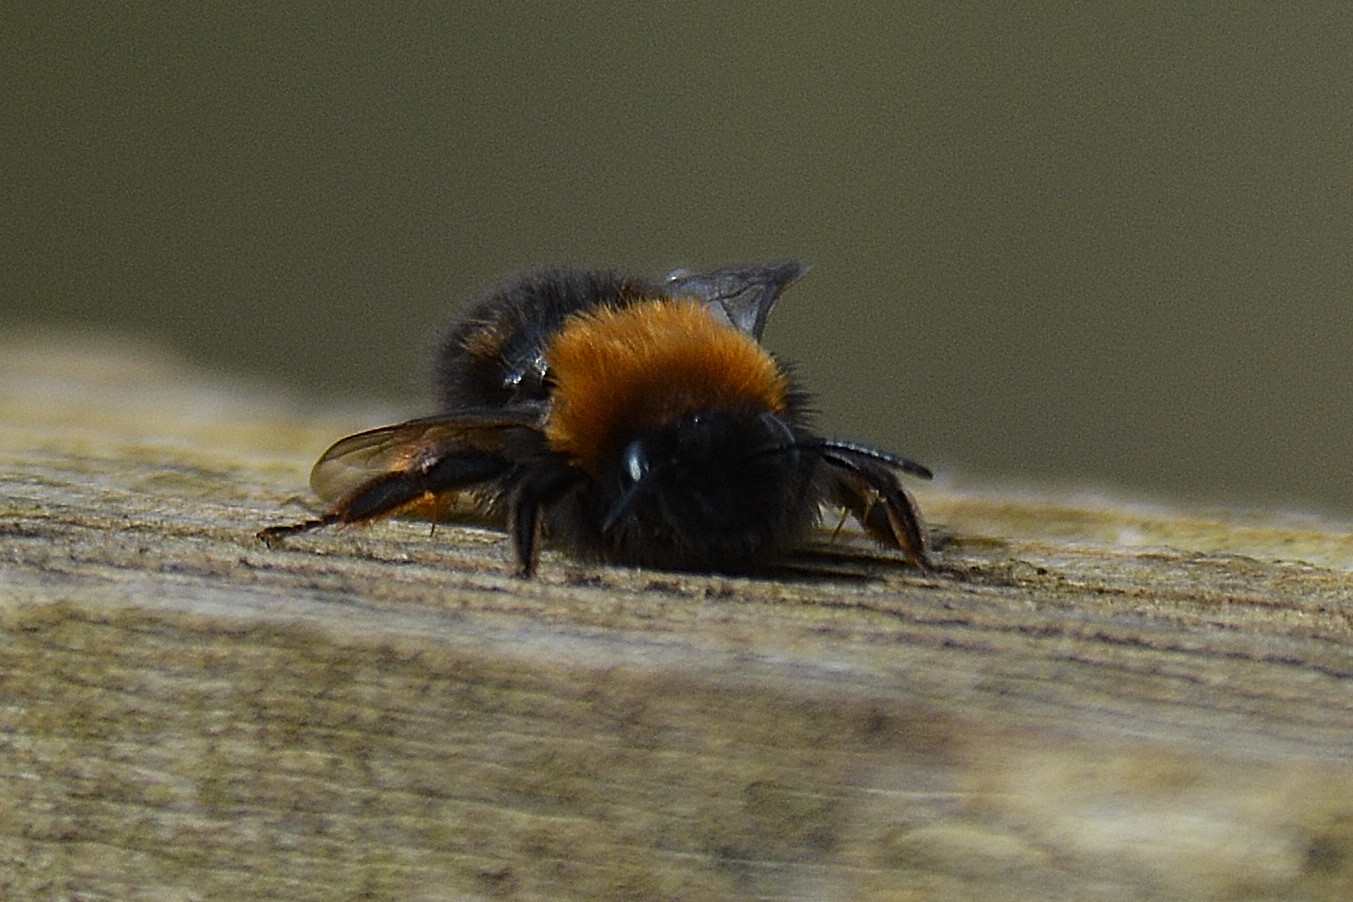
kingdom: Animalia
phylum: Arthropoda
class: Insecta
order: Hymenoptera
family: Andrenidae
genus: Andrena
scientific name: Andrena clarkella
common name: Clarke's mining bee
